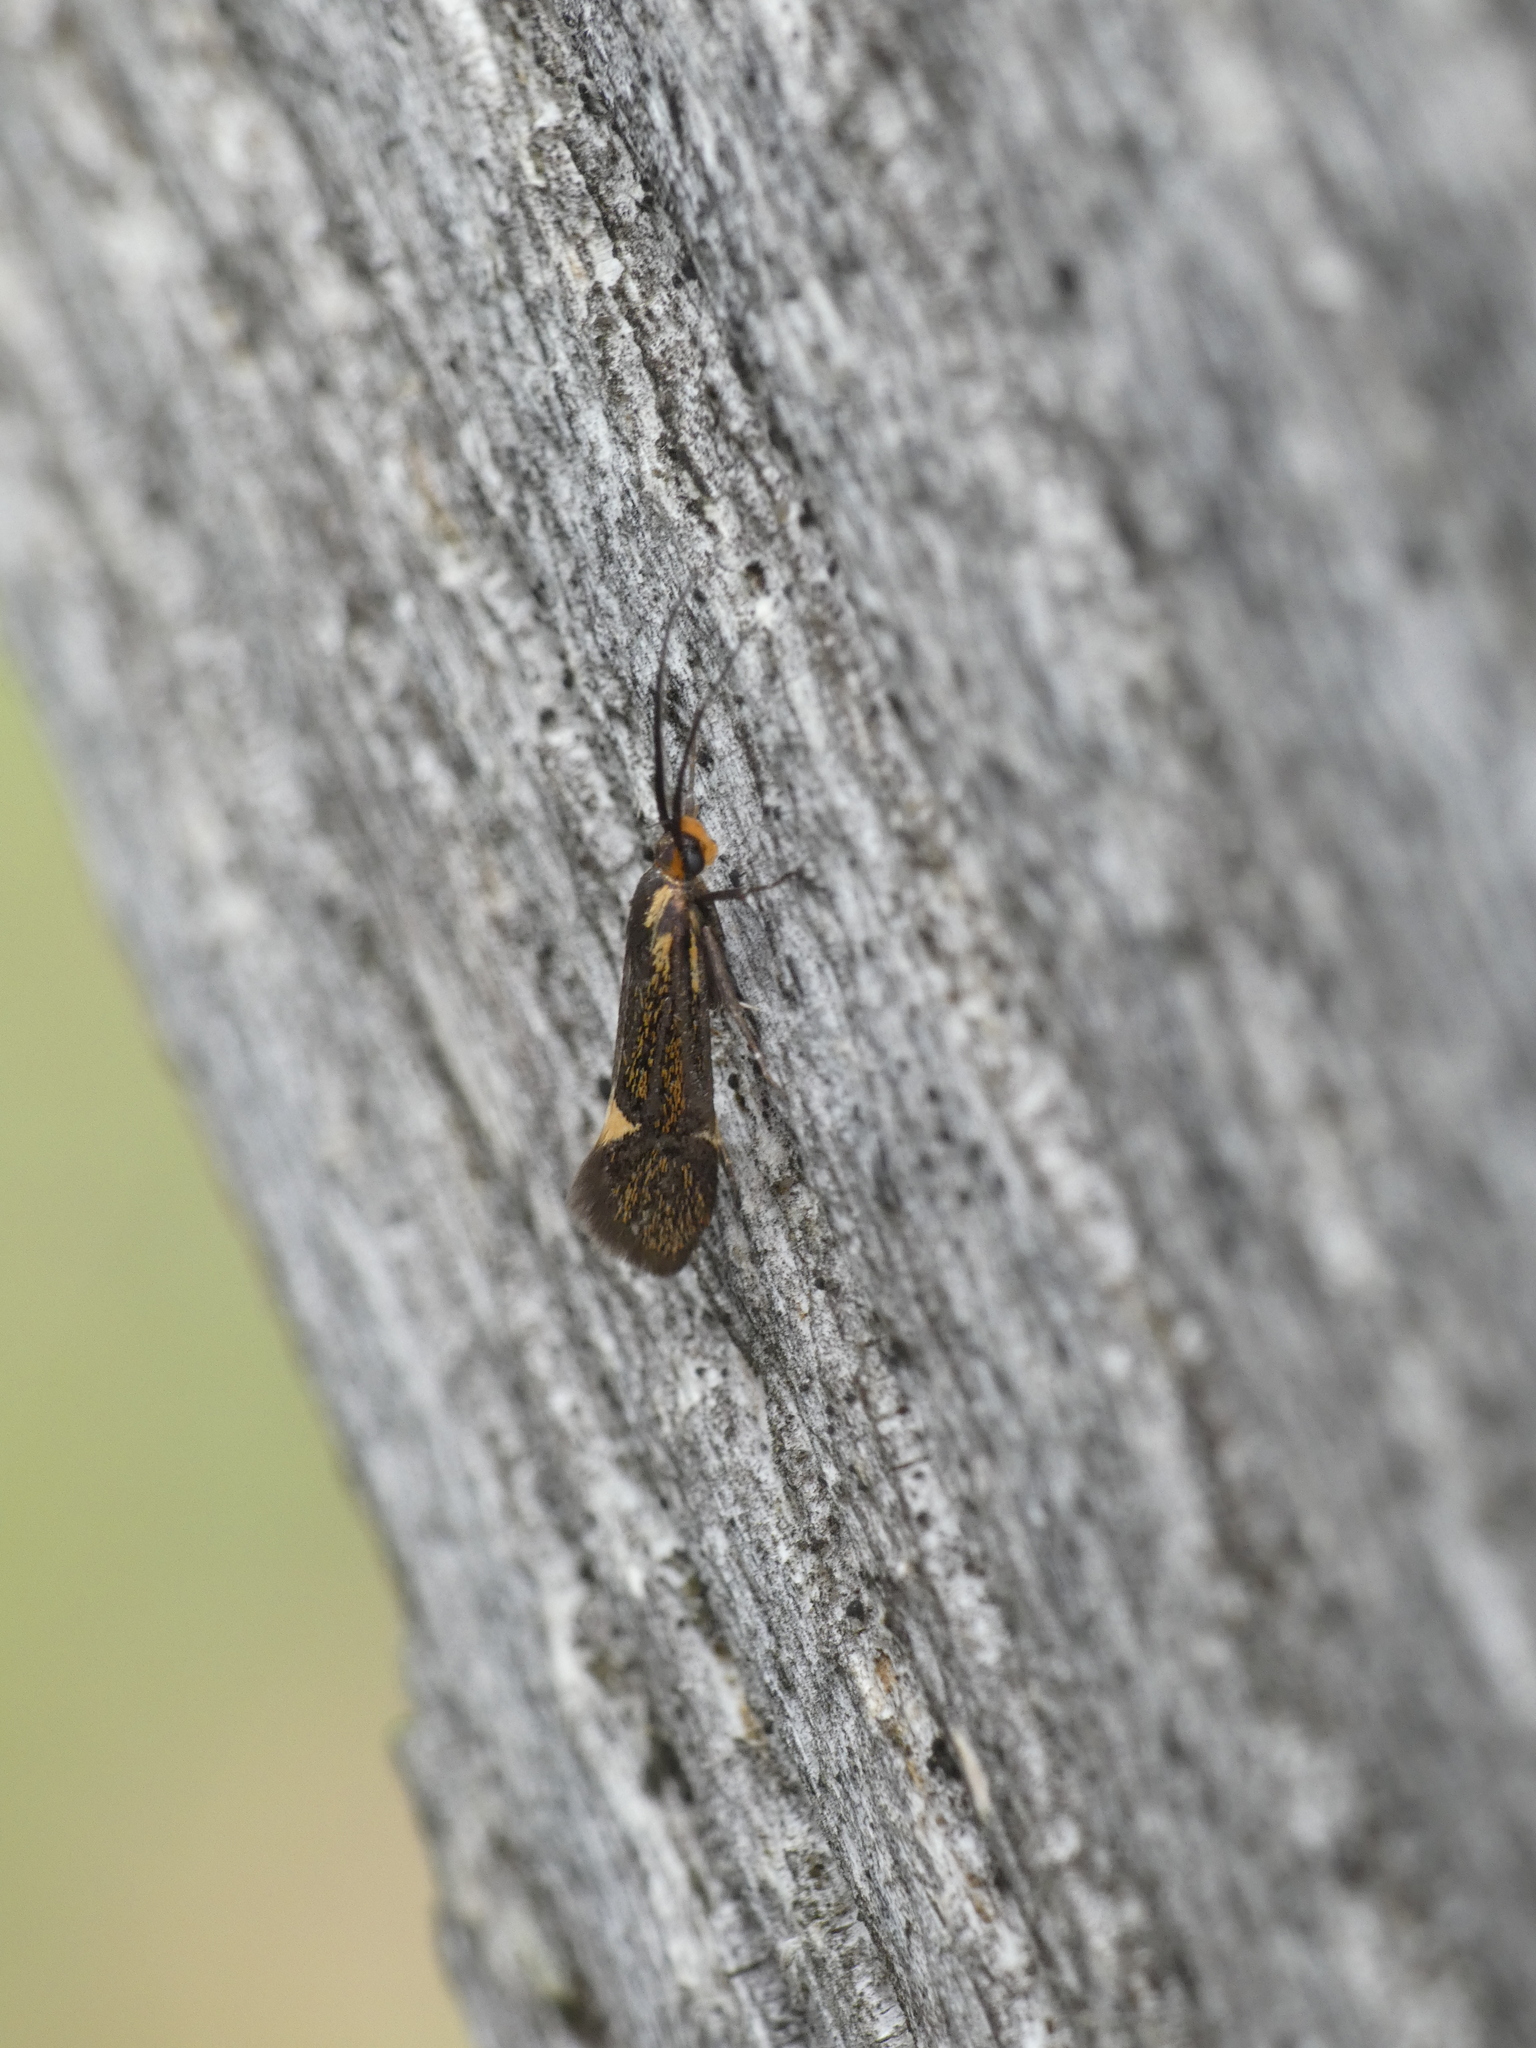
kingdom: Animalia
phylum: Arthropoda
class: Insecta
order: Lepidoptera
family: Oecophoridae
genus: Dafa
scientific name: Dafa Esperia sulphurella
